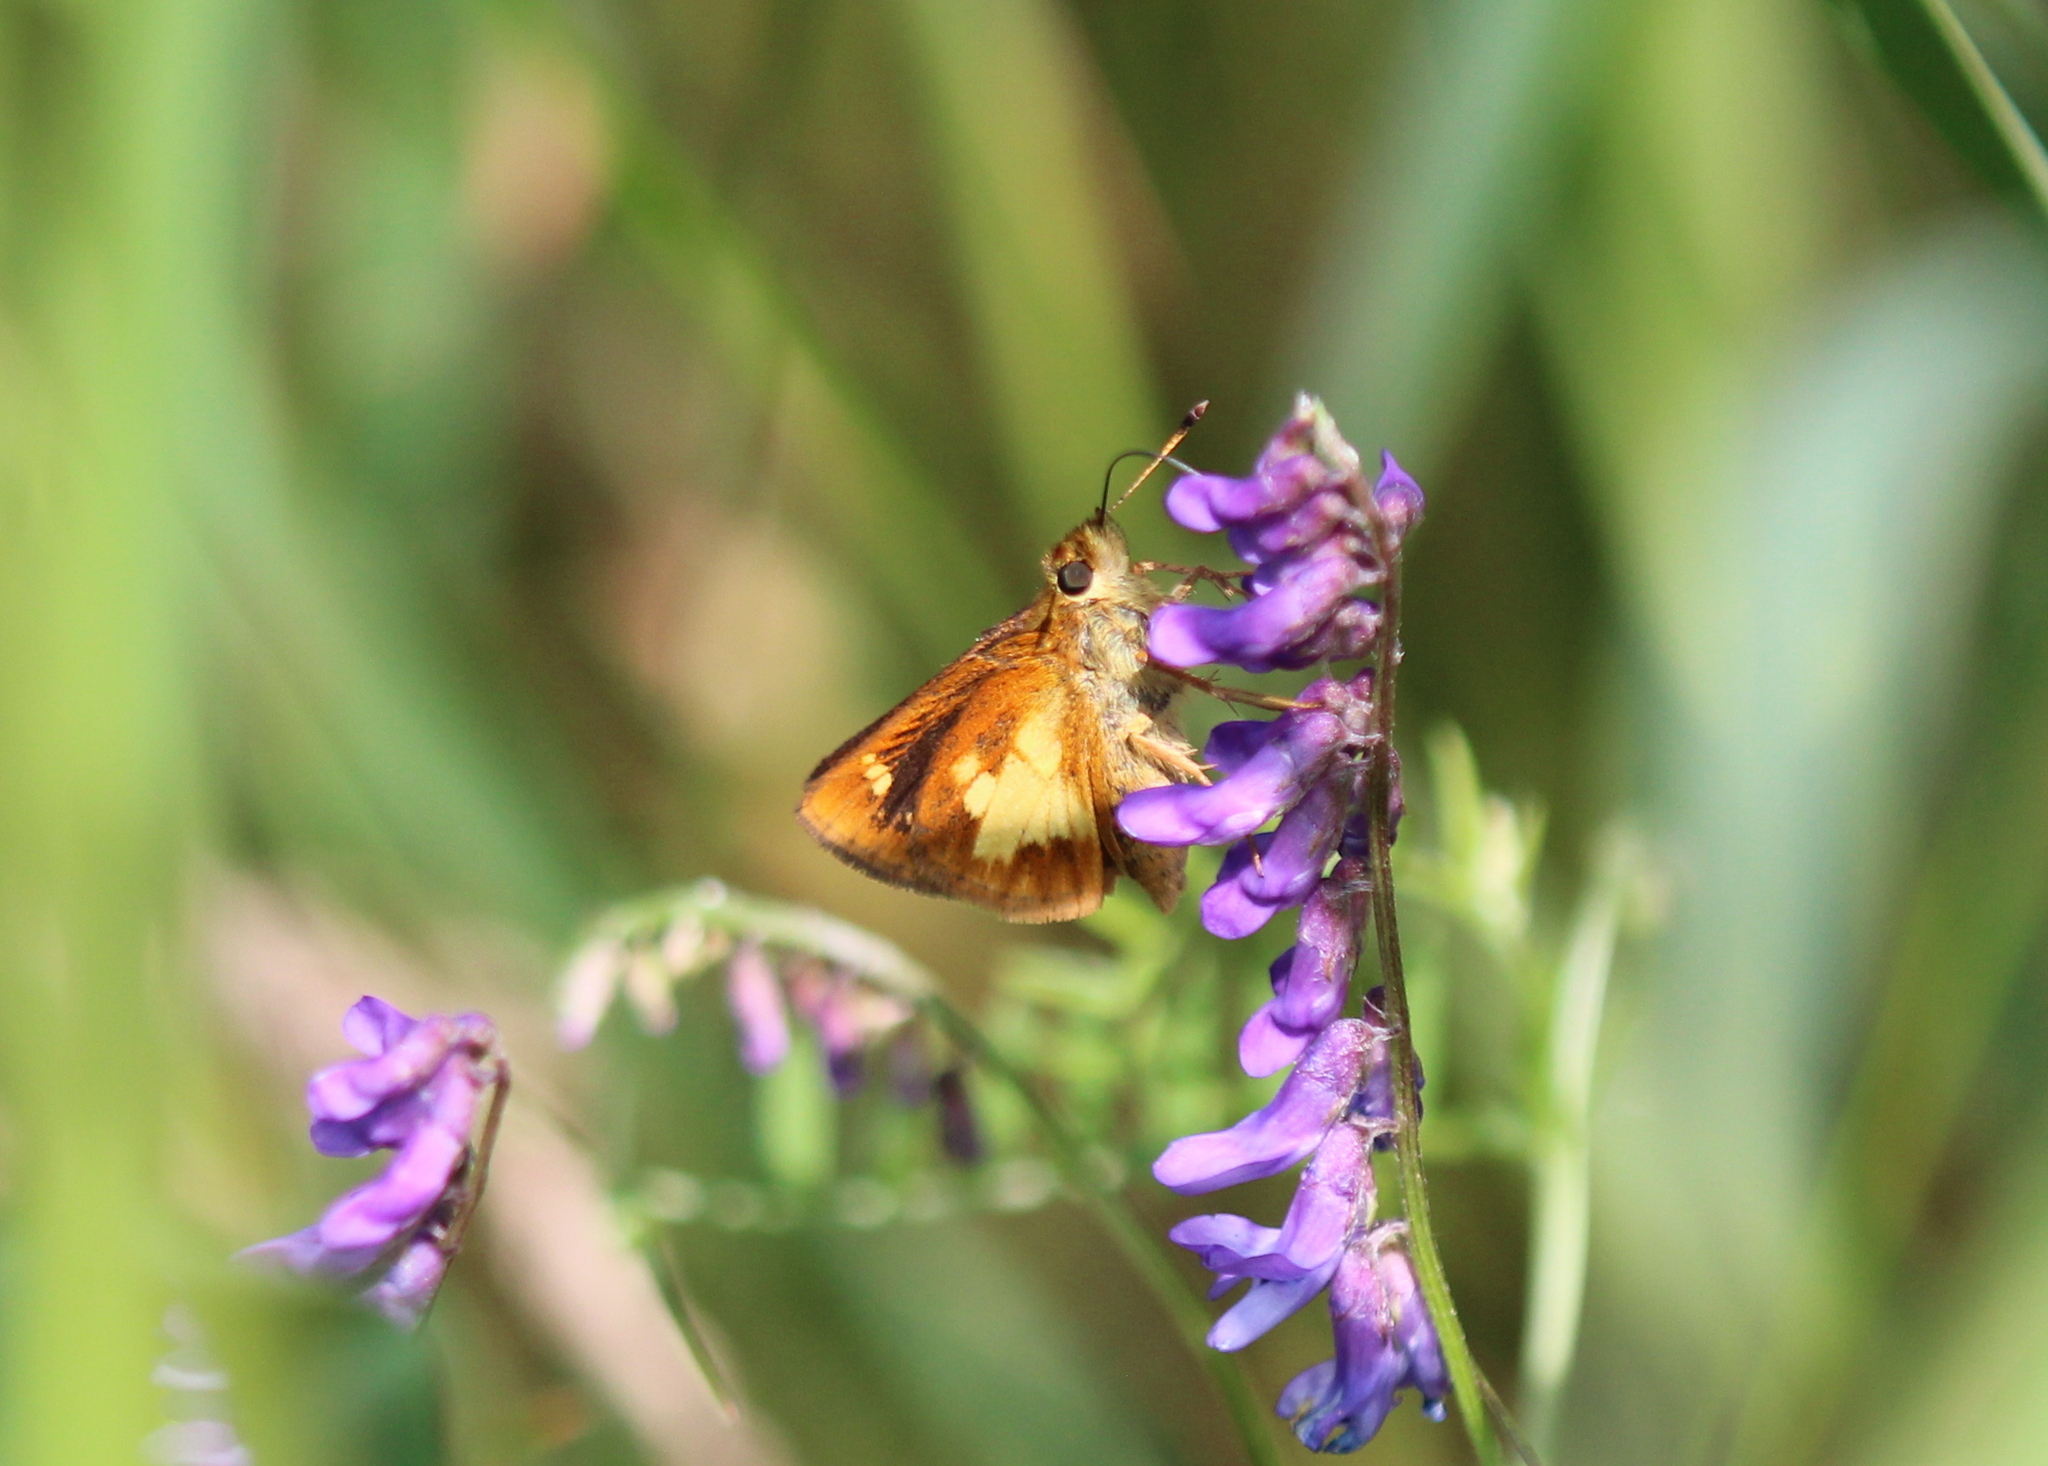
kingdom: Animalia
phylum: Arthropoda
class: Insecta
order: Lepidoptera
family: Hesperiidae
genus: Poanes
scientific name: Poanes massasoit
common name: Mulberrywing
